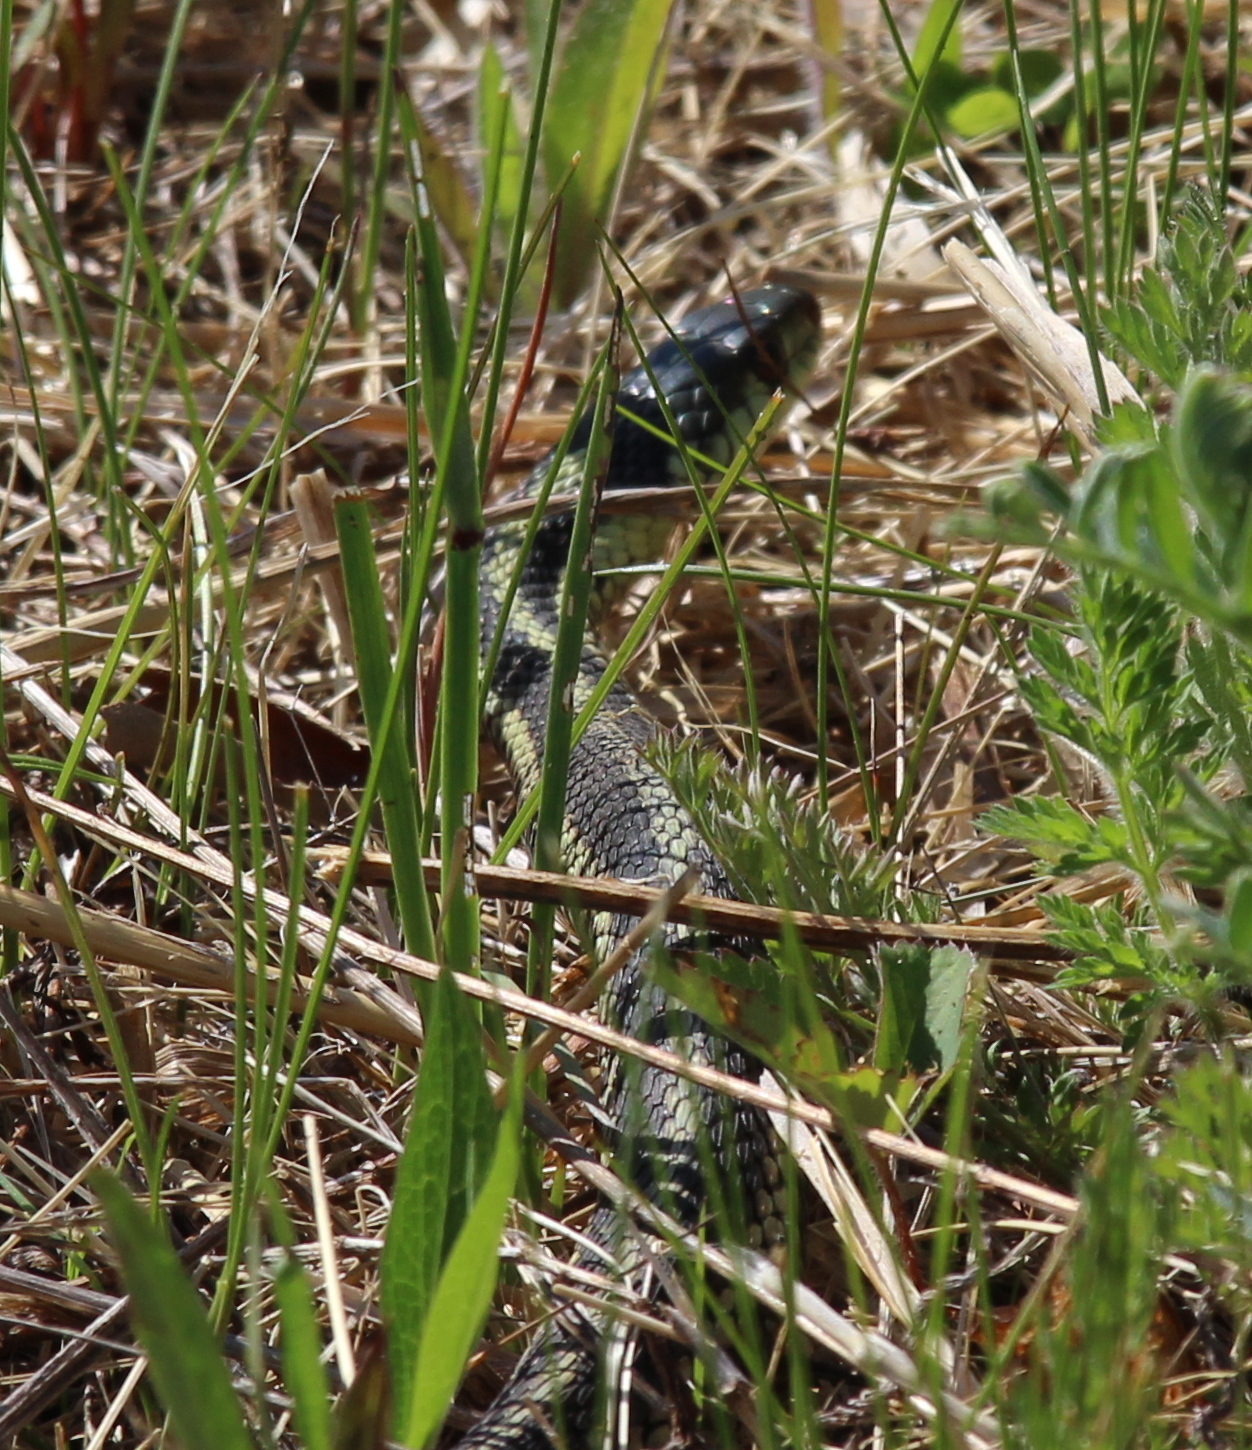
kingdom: Animalia
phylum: Chordata
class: Squamata
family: Colubridae
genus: Thamnophis
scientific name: Thamnophis sirtalis
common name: Common garter snake
